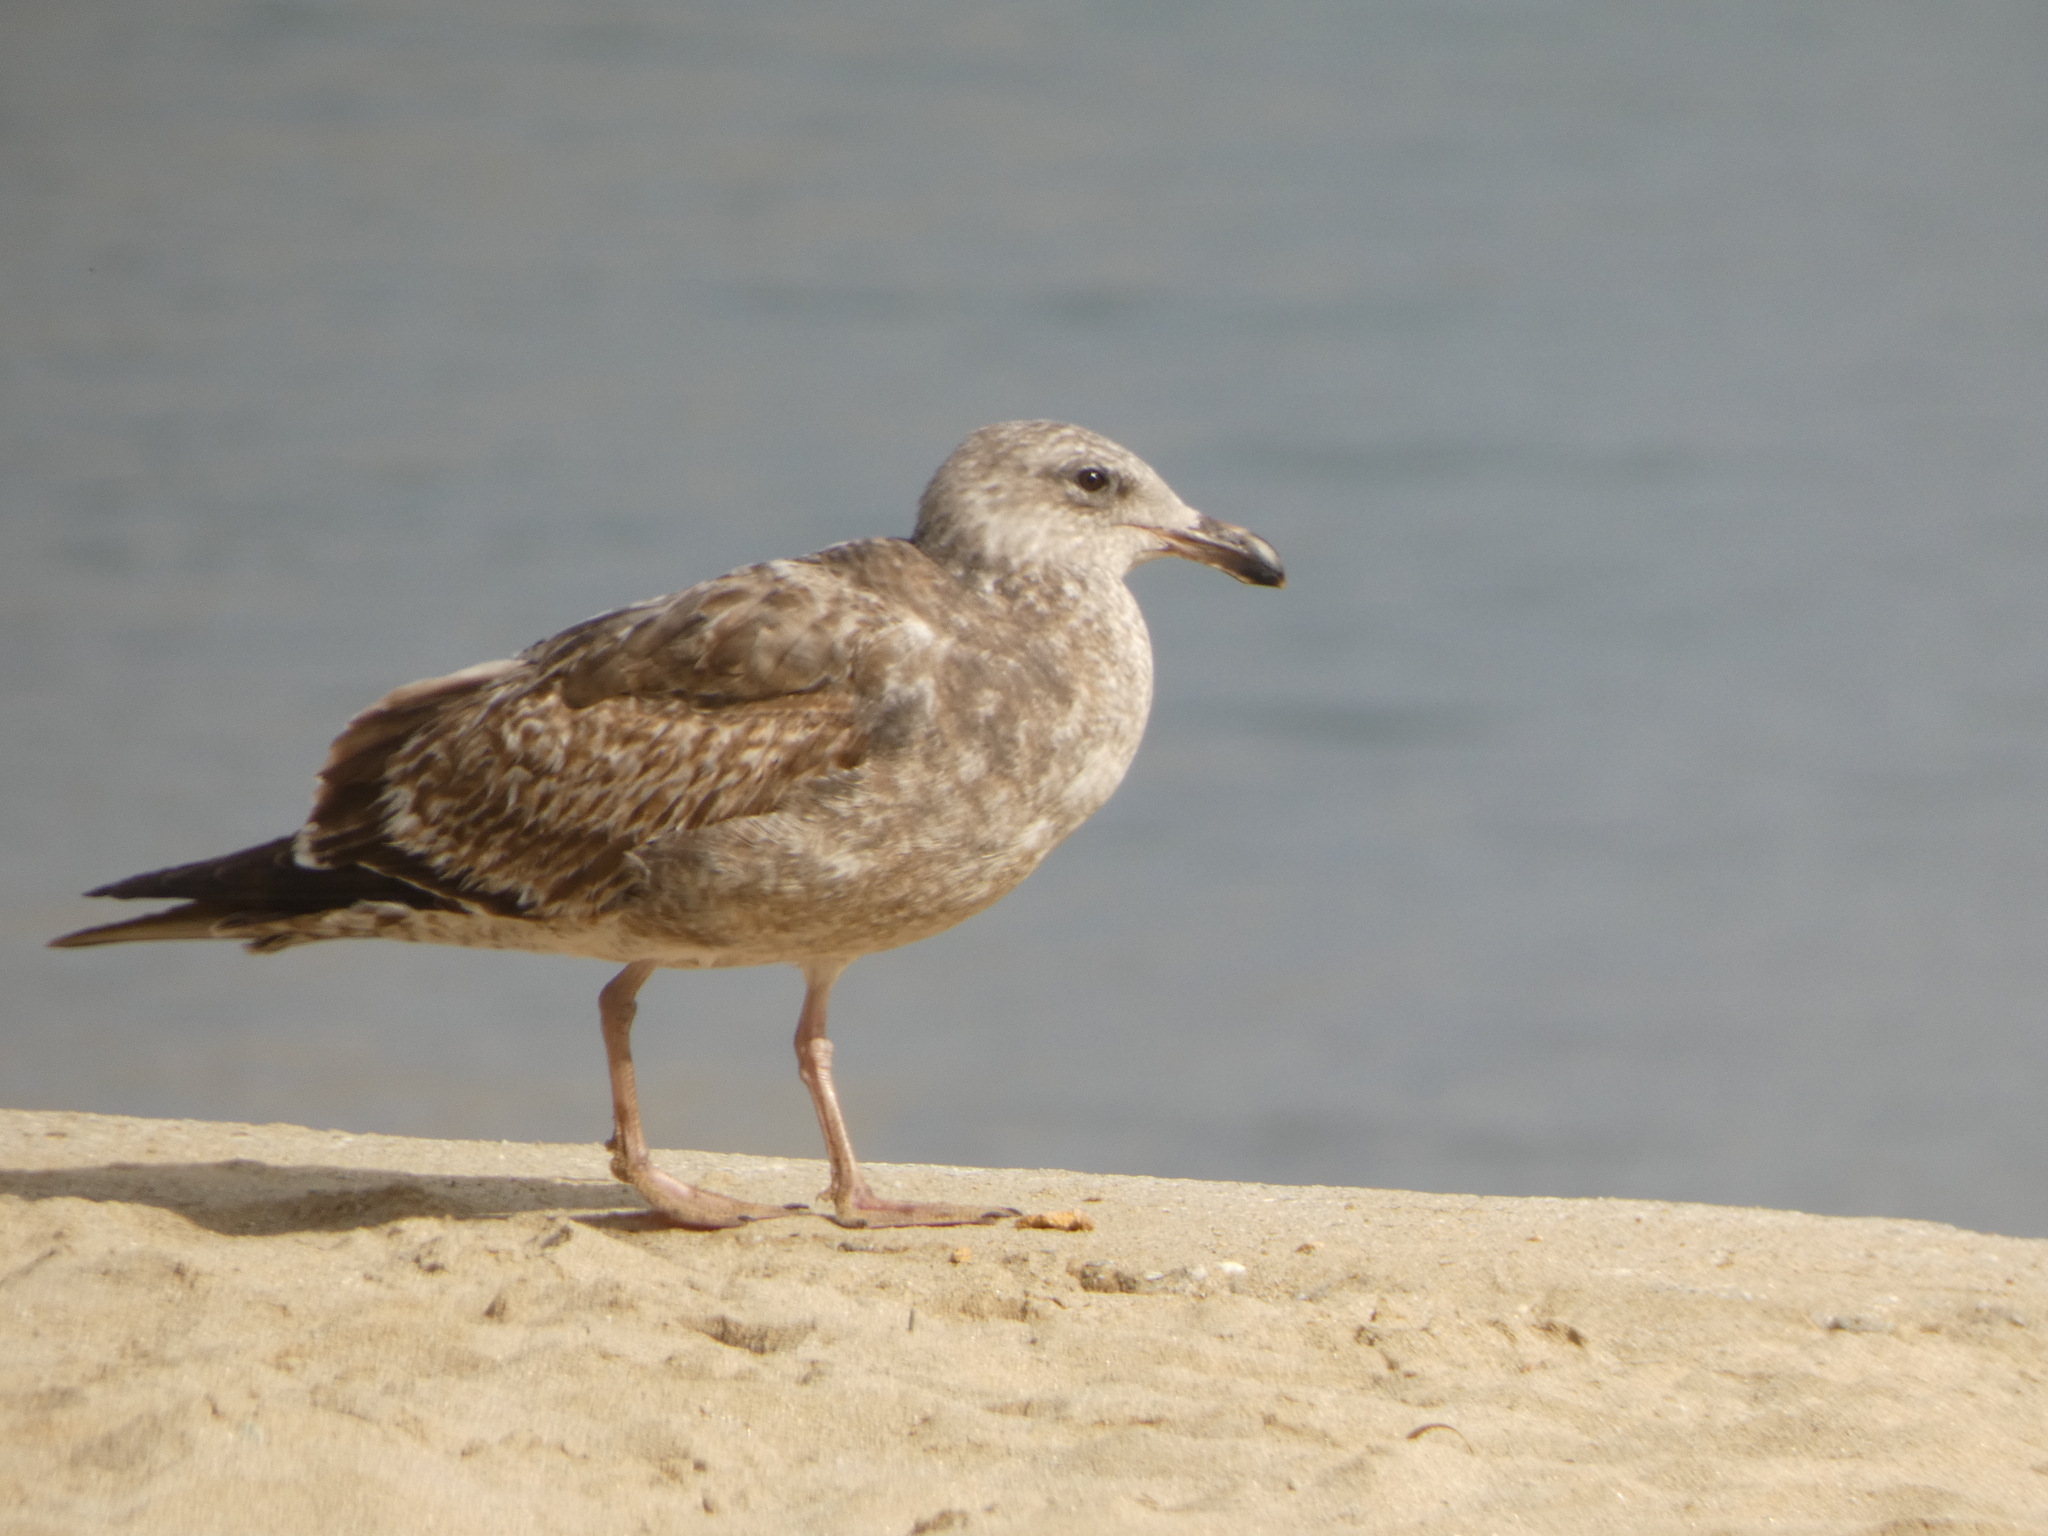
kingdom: Animalia
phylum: Chordata
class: Aves
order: Charadriiformes
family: Laridae
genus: Larus
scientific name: Larus occidentalis
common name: Western gull
